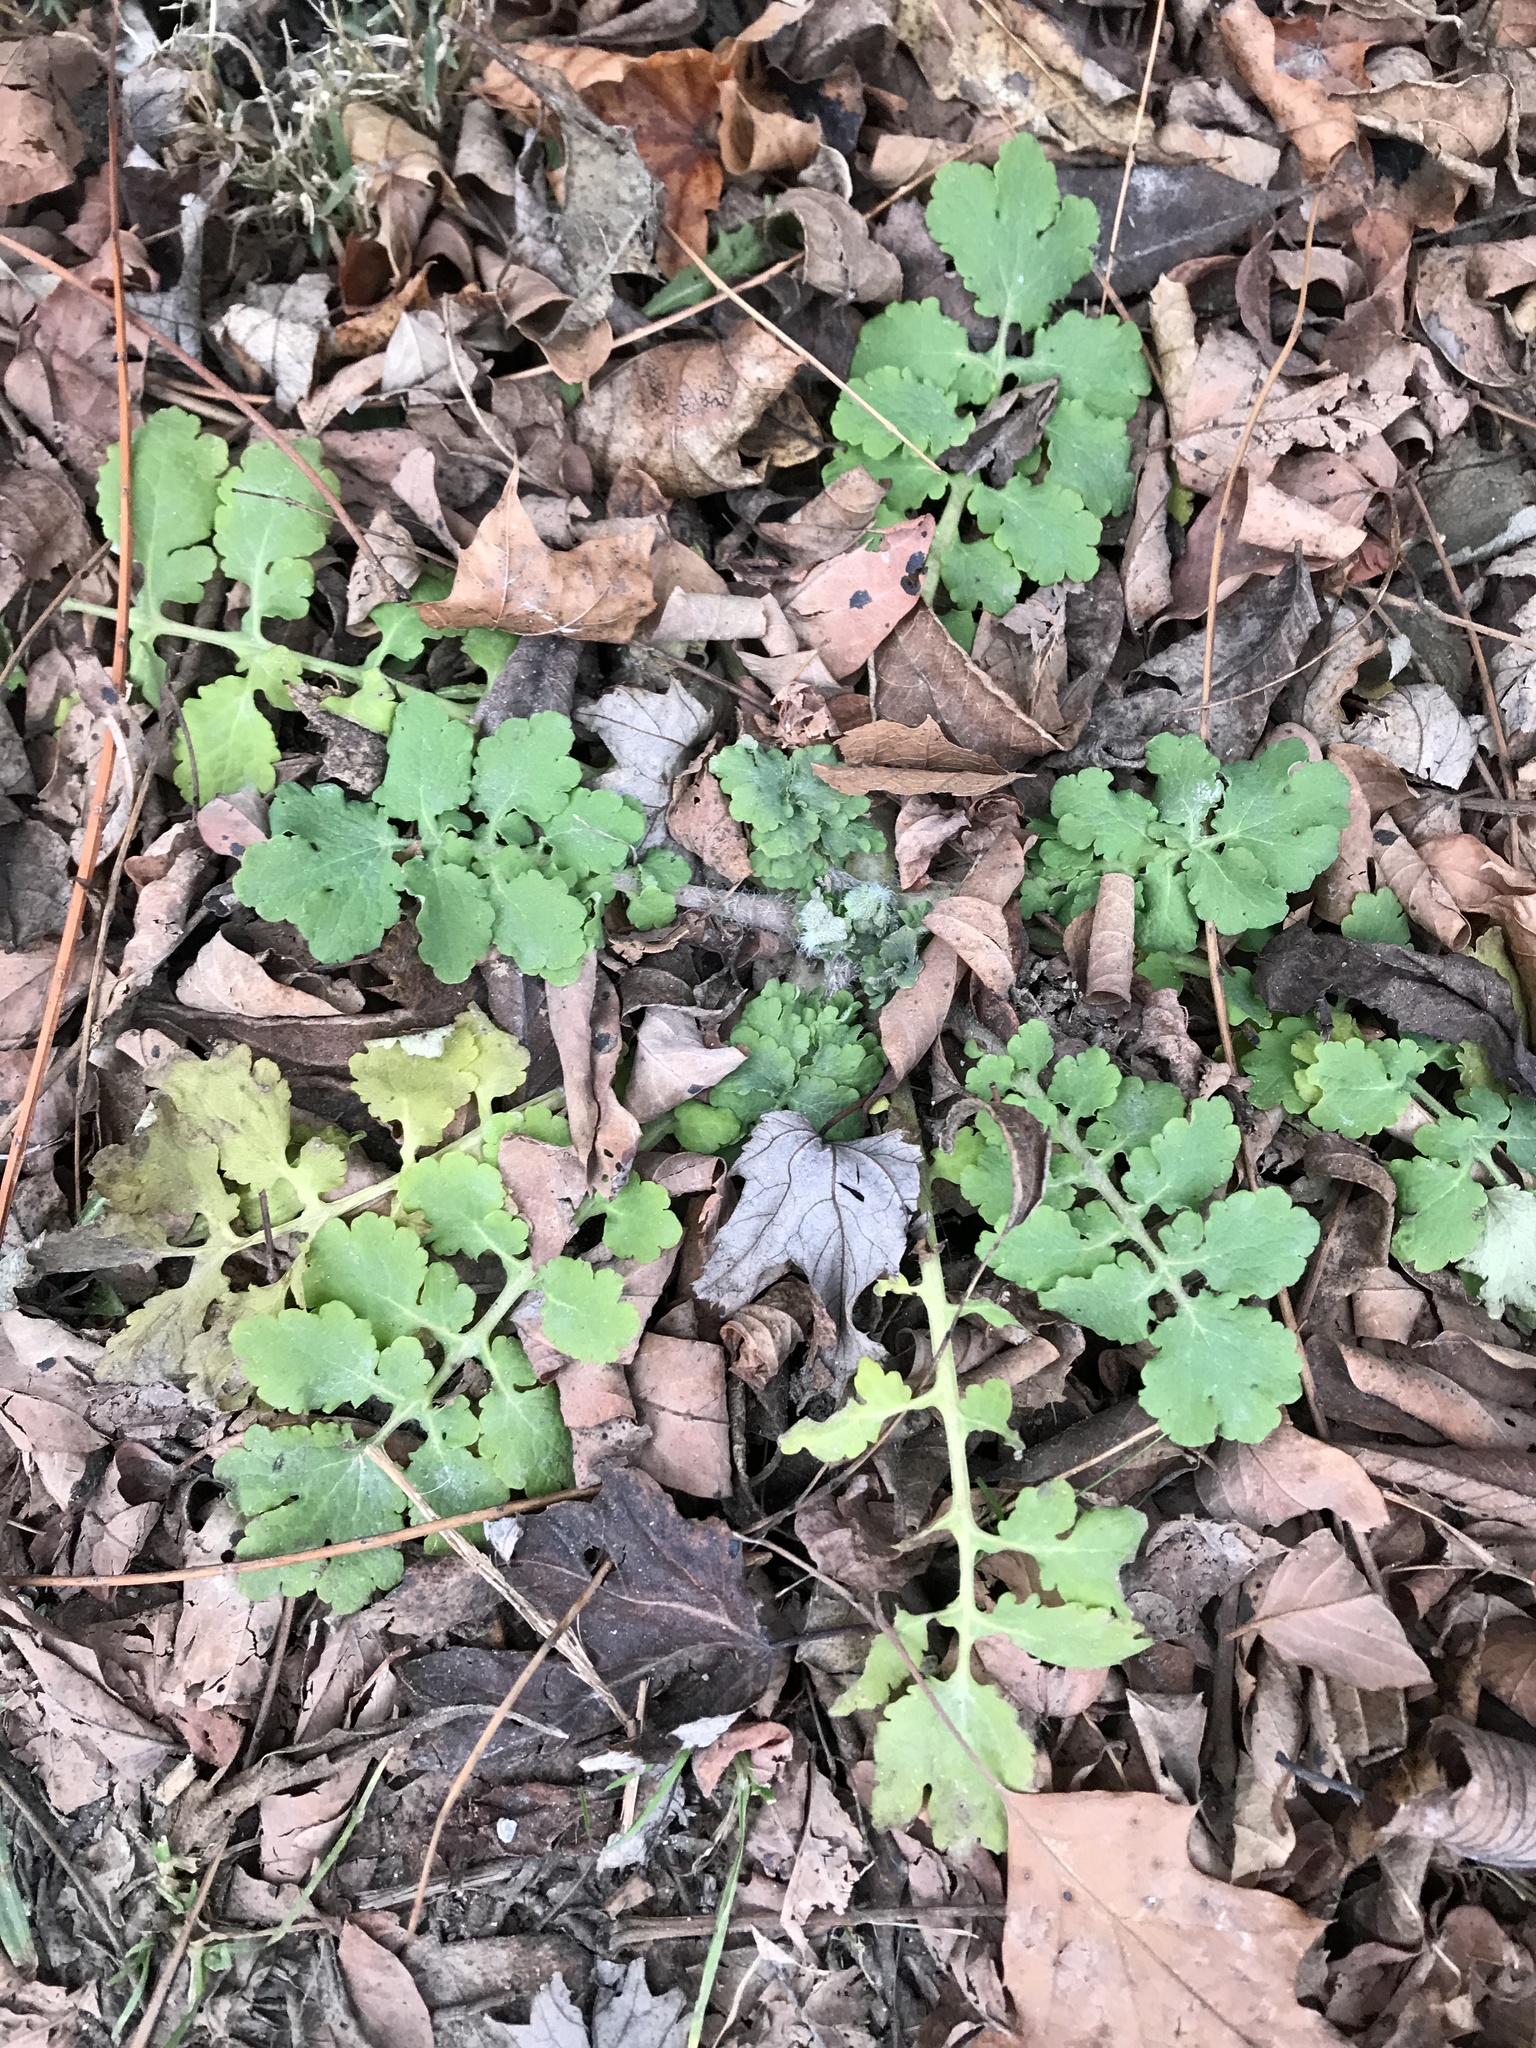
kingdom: Plantae
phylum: Tracheophyta
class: Magnoliopsida
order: Ranunculales
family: Papaveraceae
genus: Chelidonium
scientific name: Chelidonium majus
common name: Greater celandine
